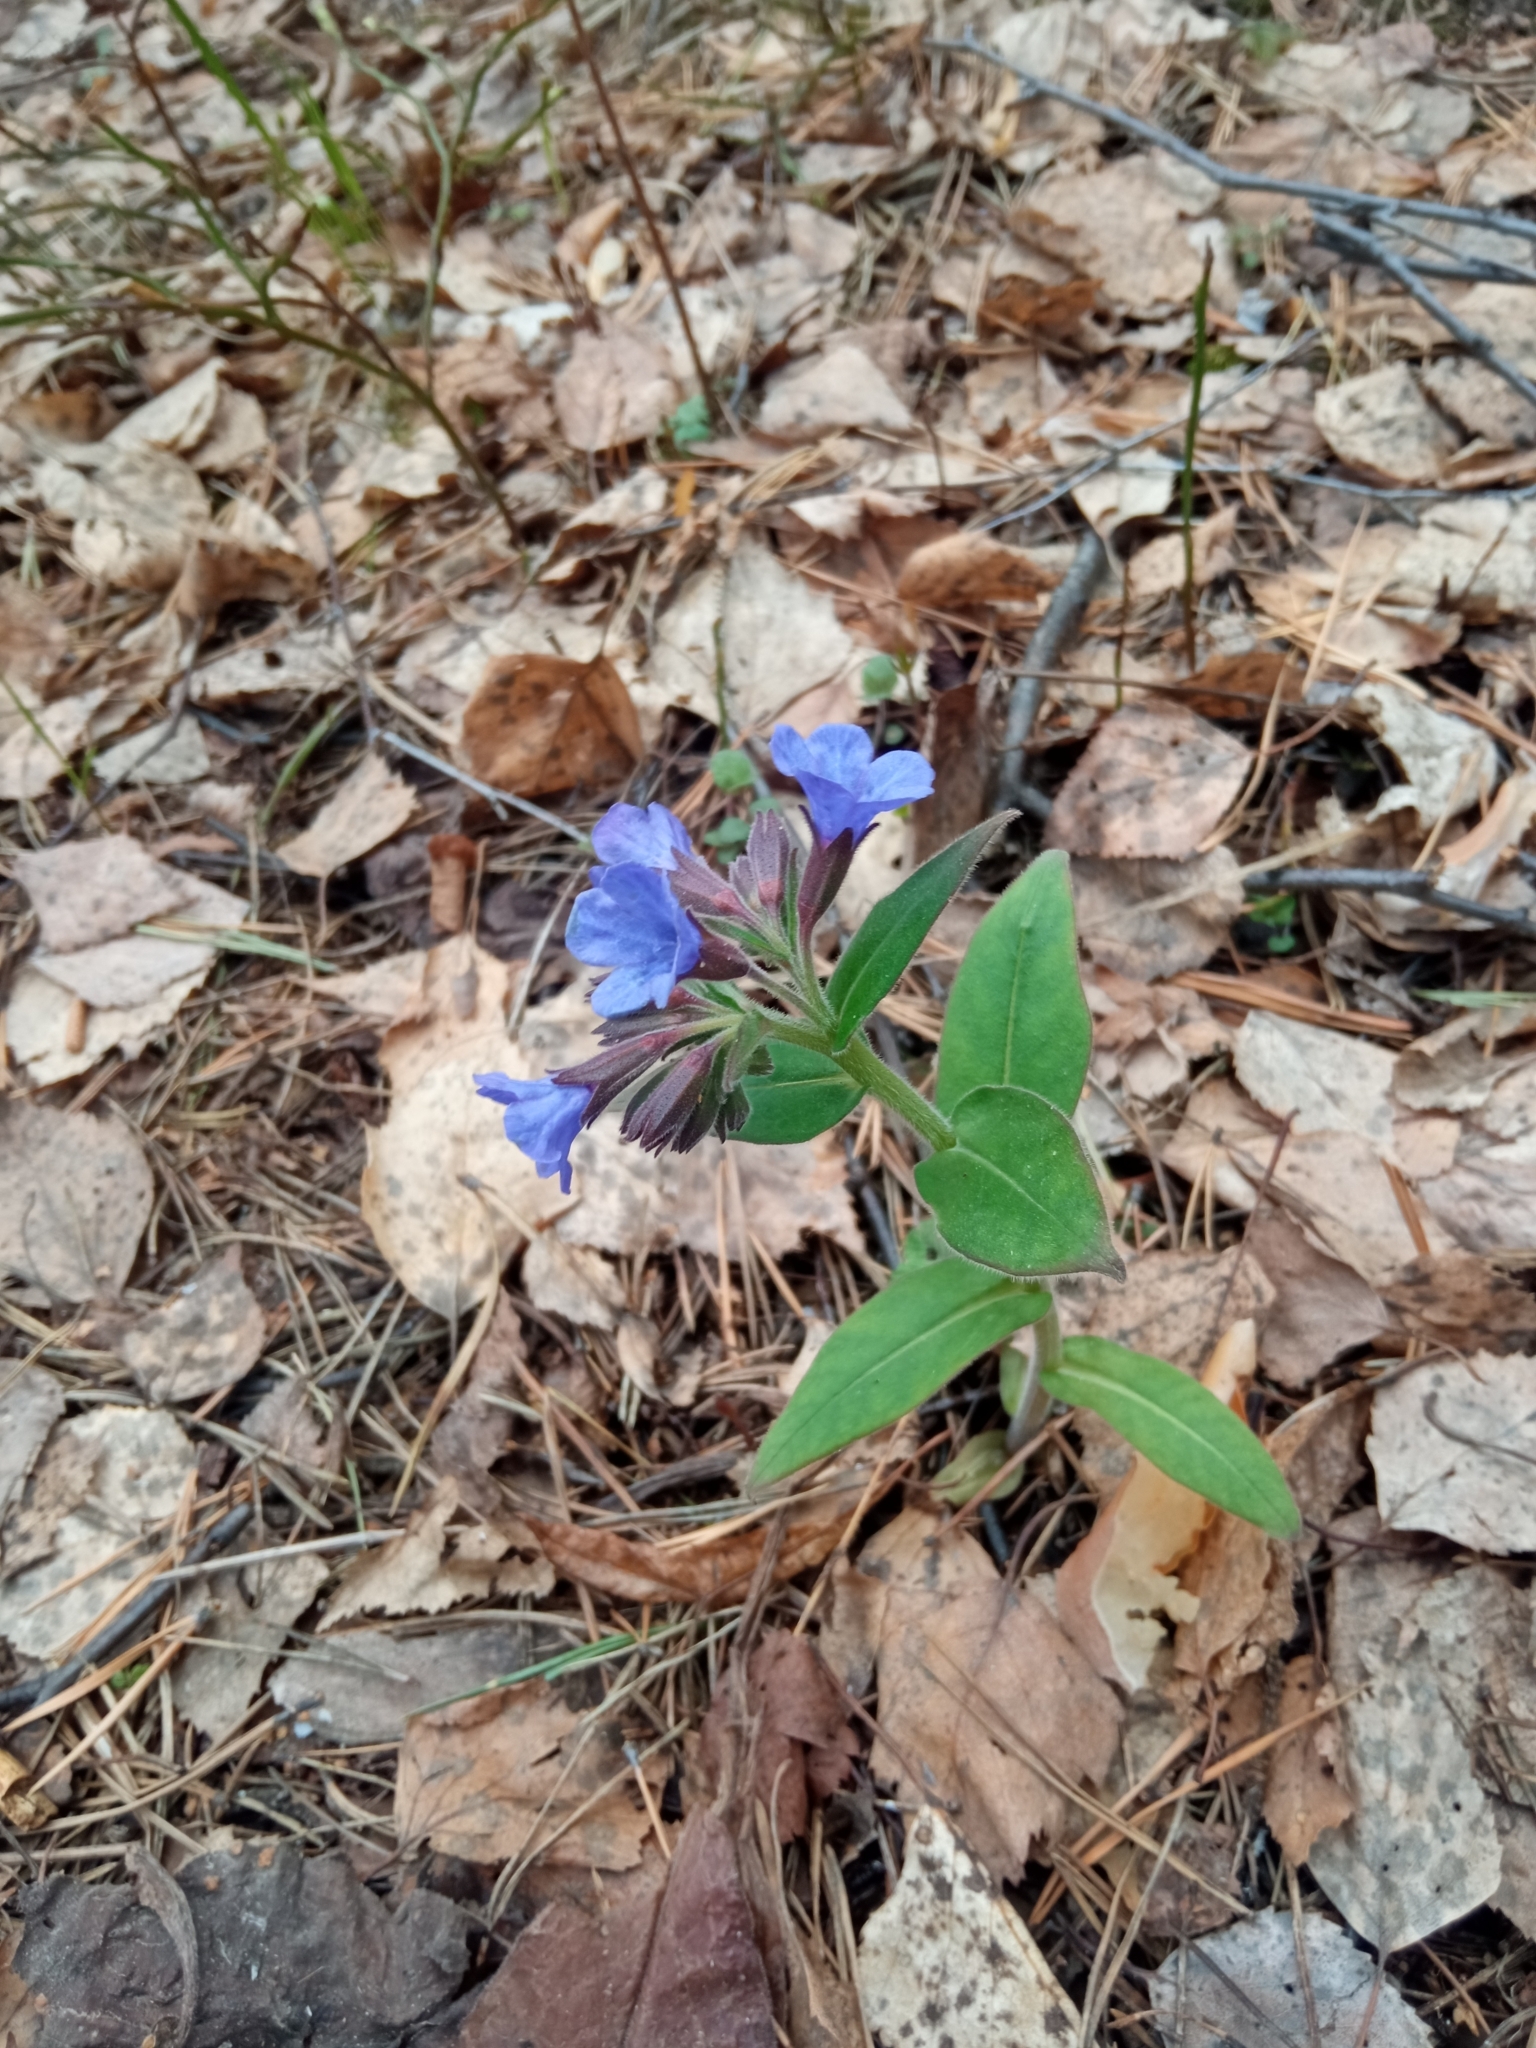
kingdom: Plantae
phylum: Tracheophyta
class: Magnoliopsida
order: Boraginales
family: Boraginaceae
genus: Pulmonaria
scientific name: Pulmonaria mollis
